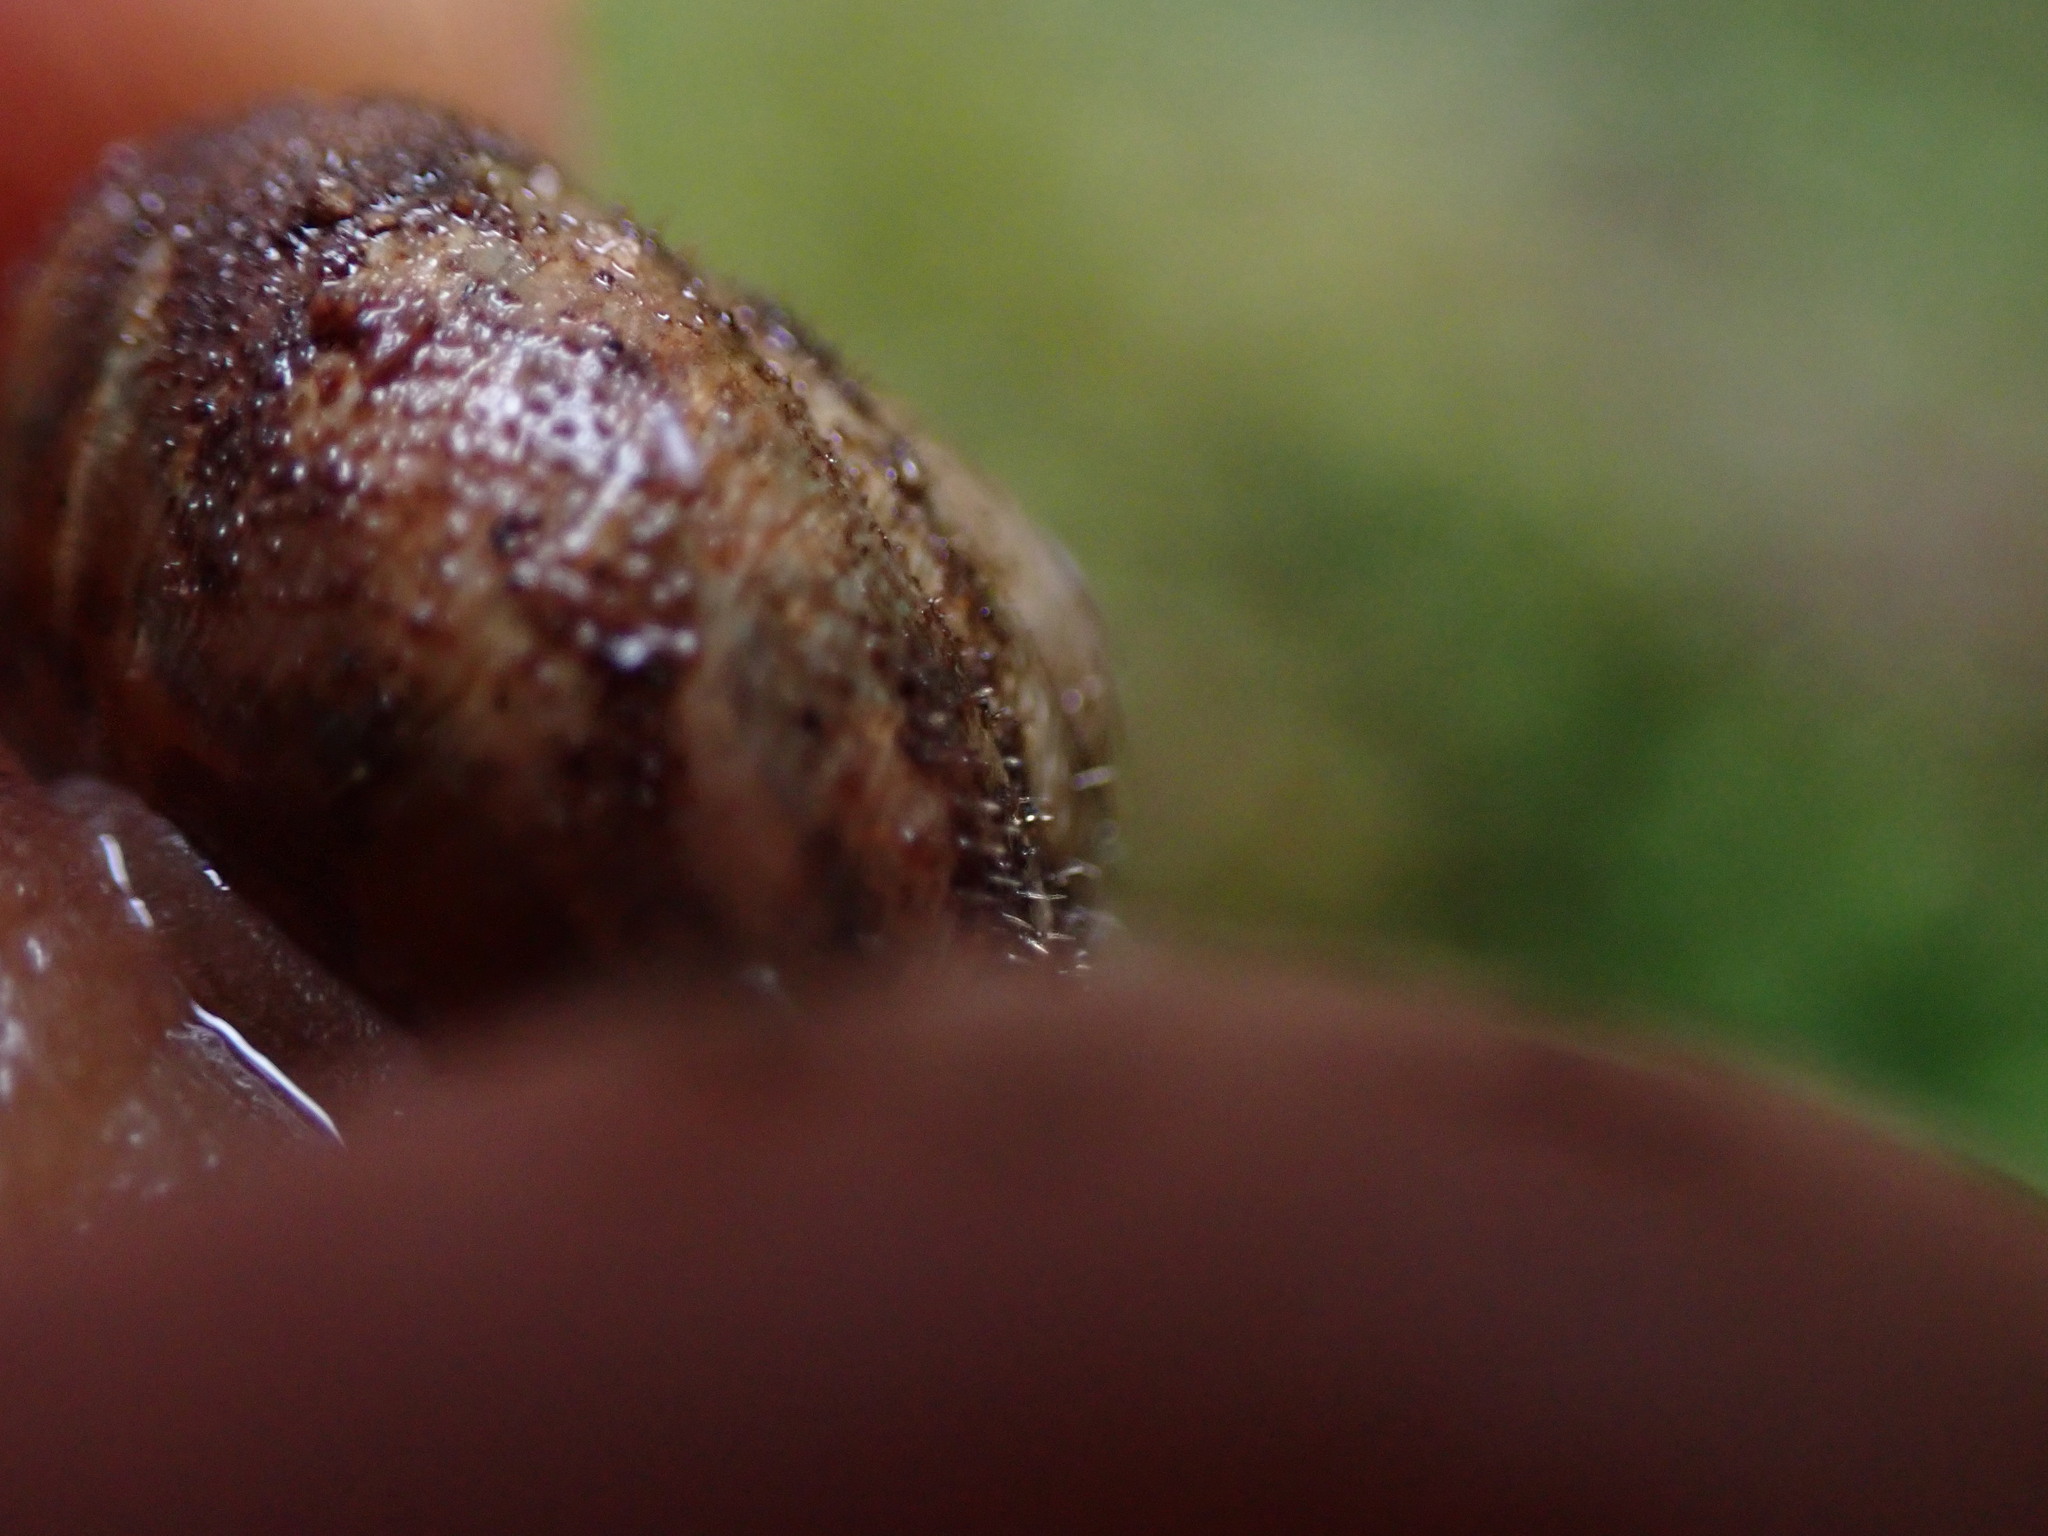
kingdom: Animalia
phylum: Mollusca
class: Gastropoda
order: Stylommatophora
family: Polygyridae
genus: Vespericola
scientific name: Vespericola columbianus
